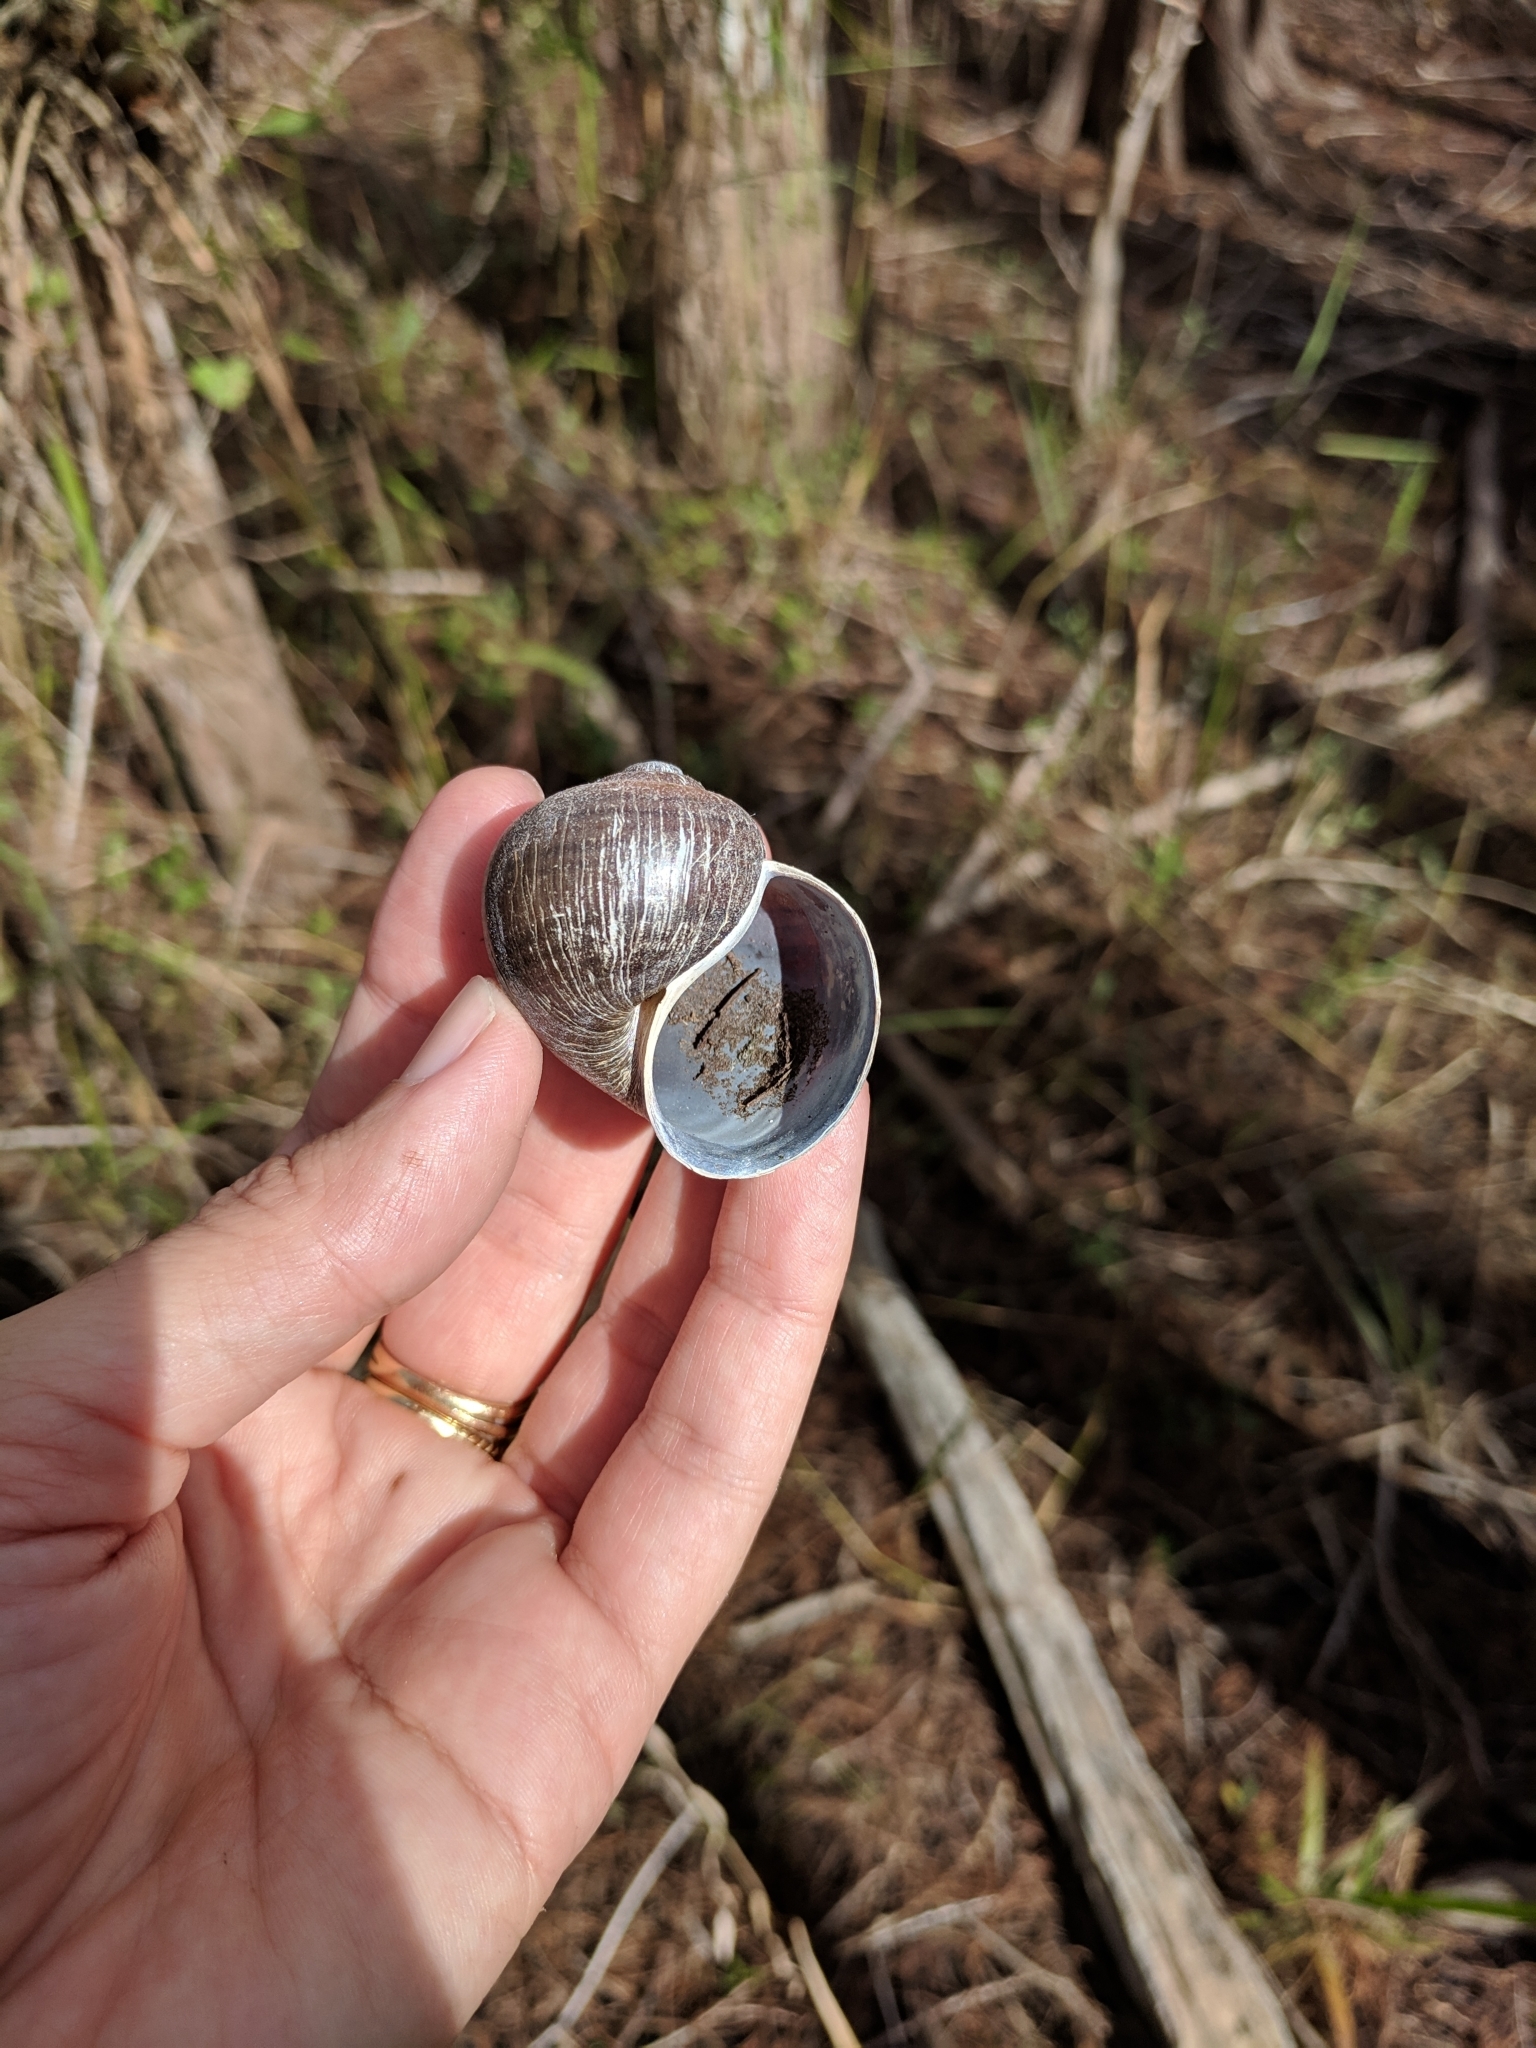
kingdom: Animalia
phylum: Mollusca
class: Gastropoda
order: Architaenioglossa
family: Ampullariidae
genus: Pomacea
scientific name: Pomacea paludosa
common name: Florida applesnail
